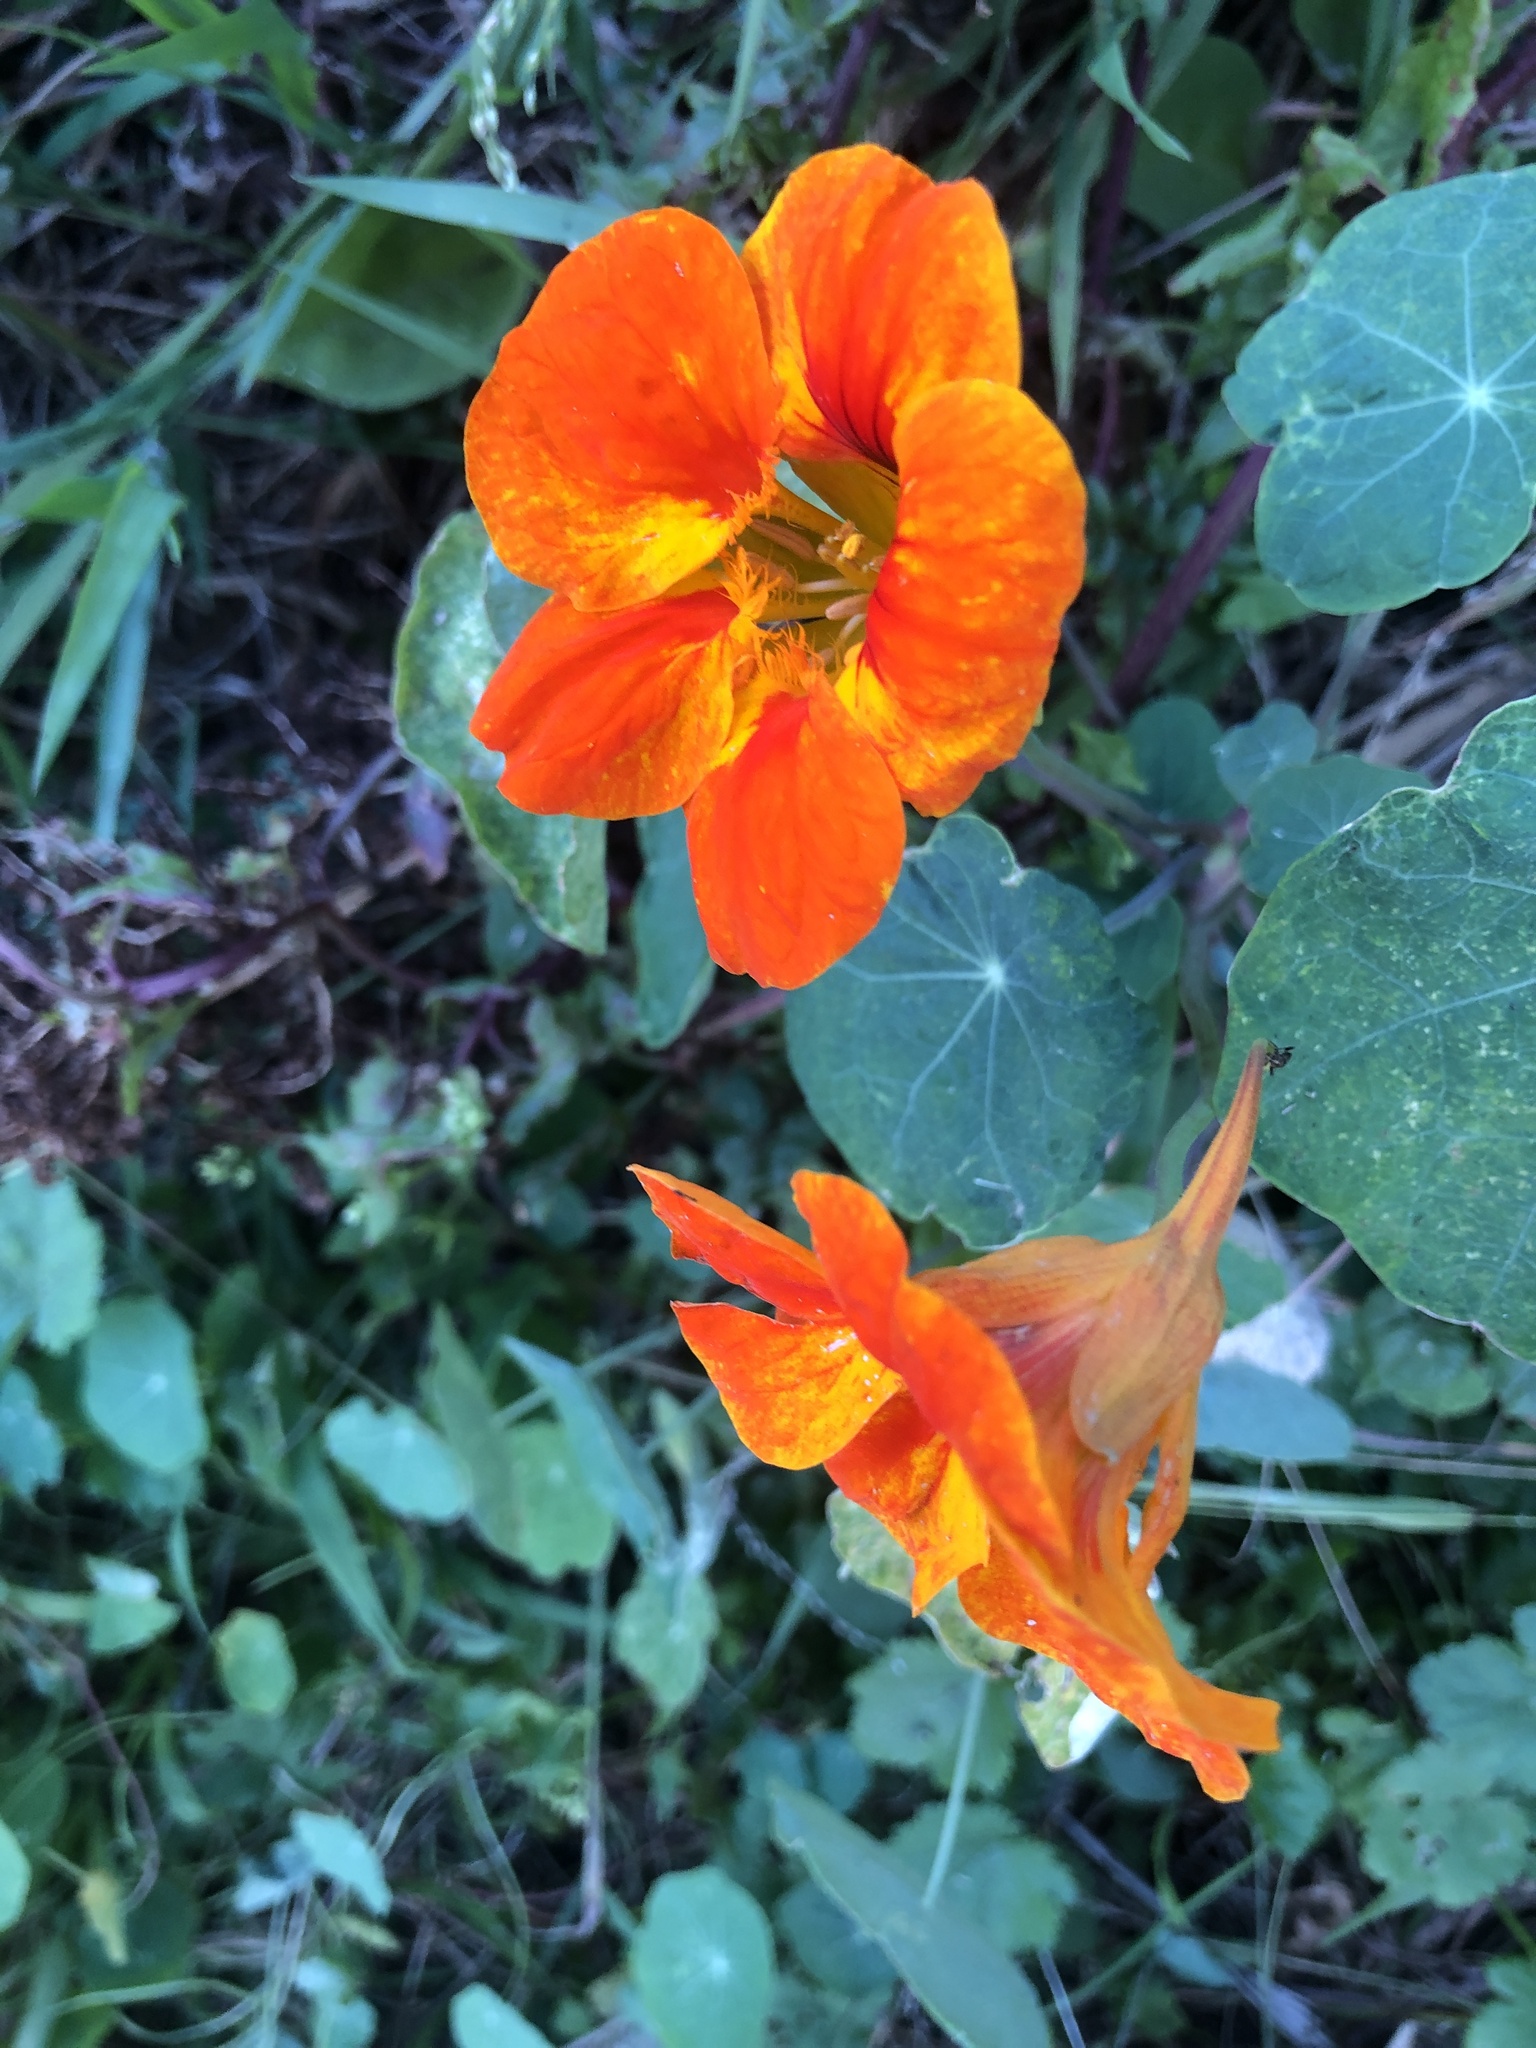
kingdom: Plantae
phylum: Tracheophyta
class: Magnoliopsida
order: Brassicales
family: Tropaeolaceae
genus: Tropaeolum
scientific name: Tropaeolum majus
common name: Nasturtium
